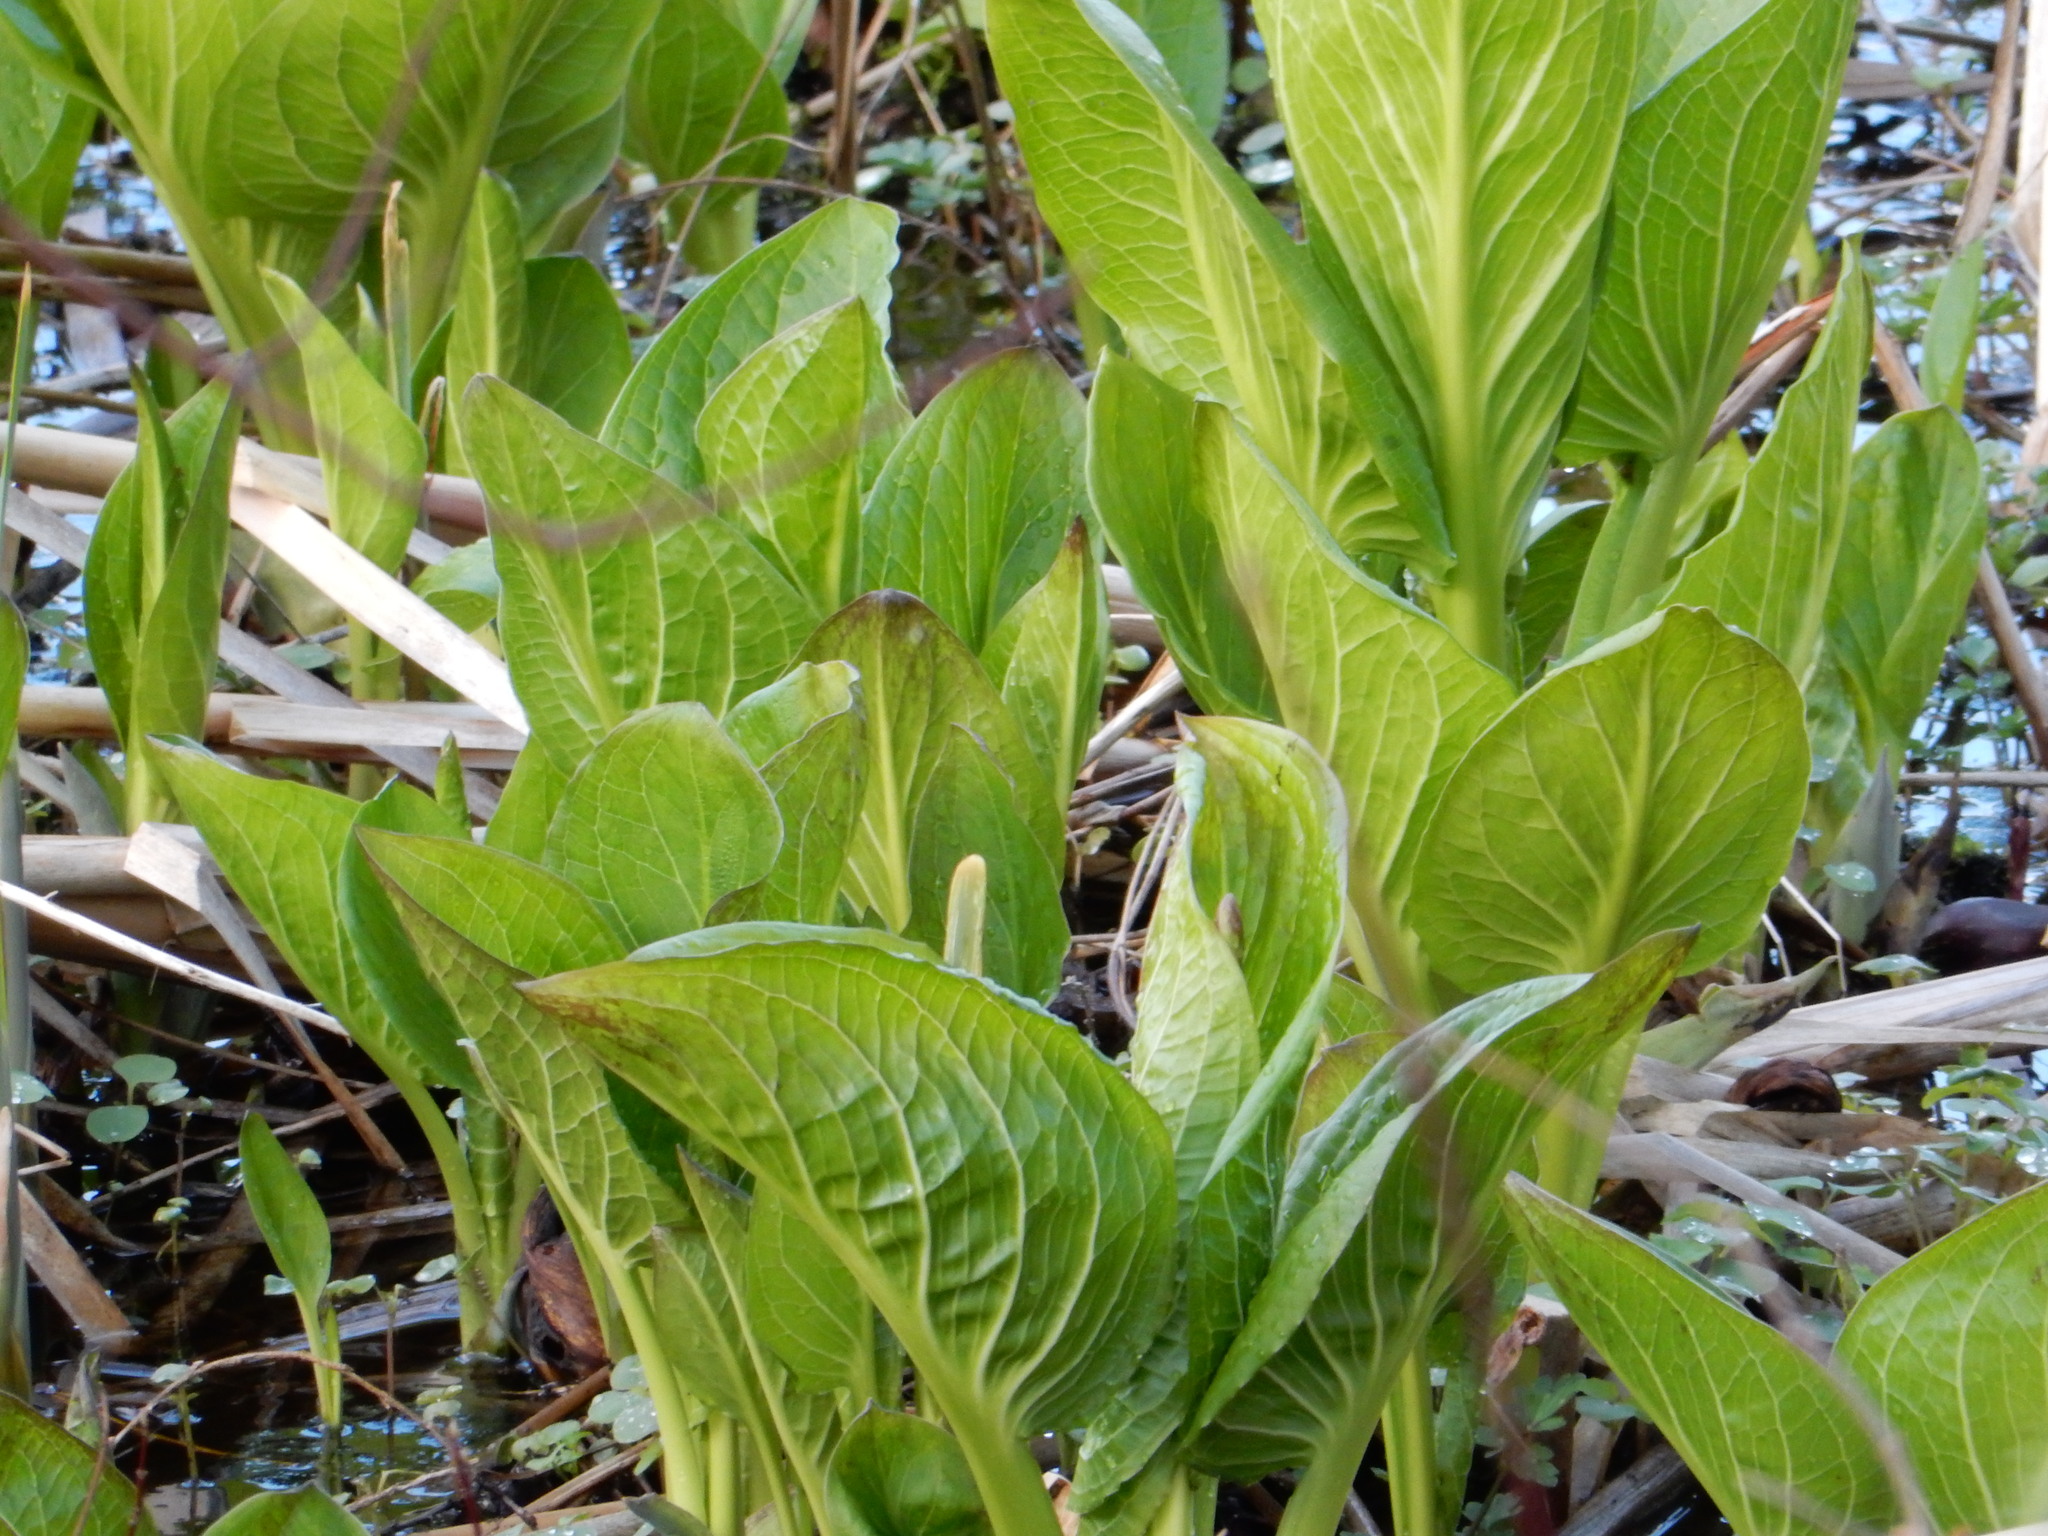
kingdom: Plantae
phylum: Tracheophyta
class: Liliopsida
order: Alismatales
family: Araceae
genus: Symplocarpus
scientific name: Symplocarpus foetidus
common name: Eastern skunk cabbage
